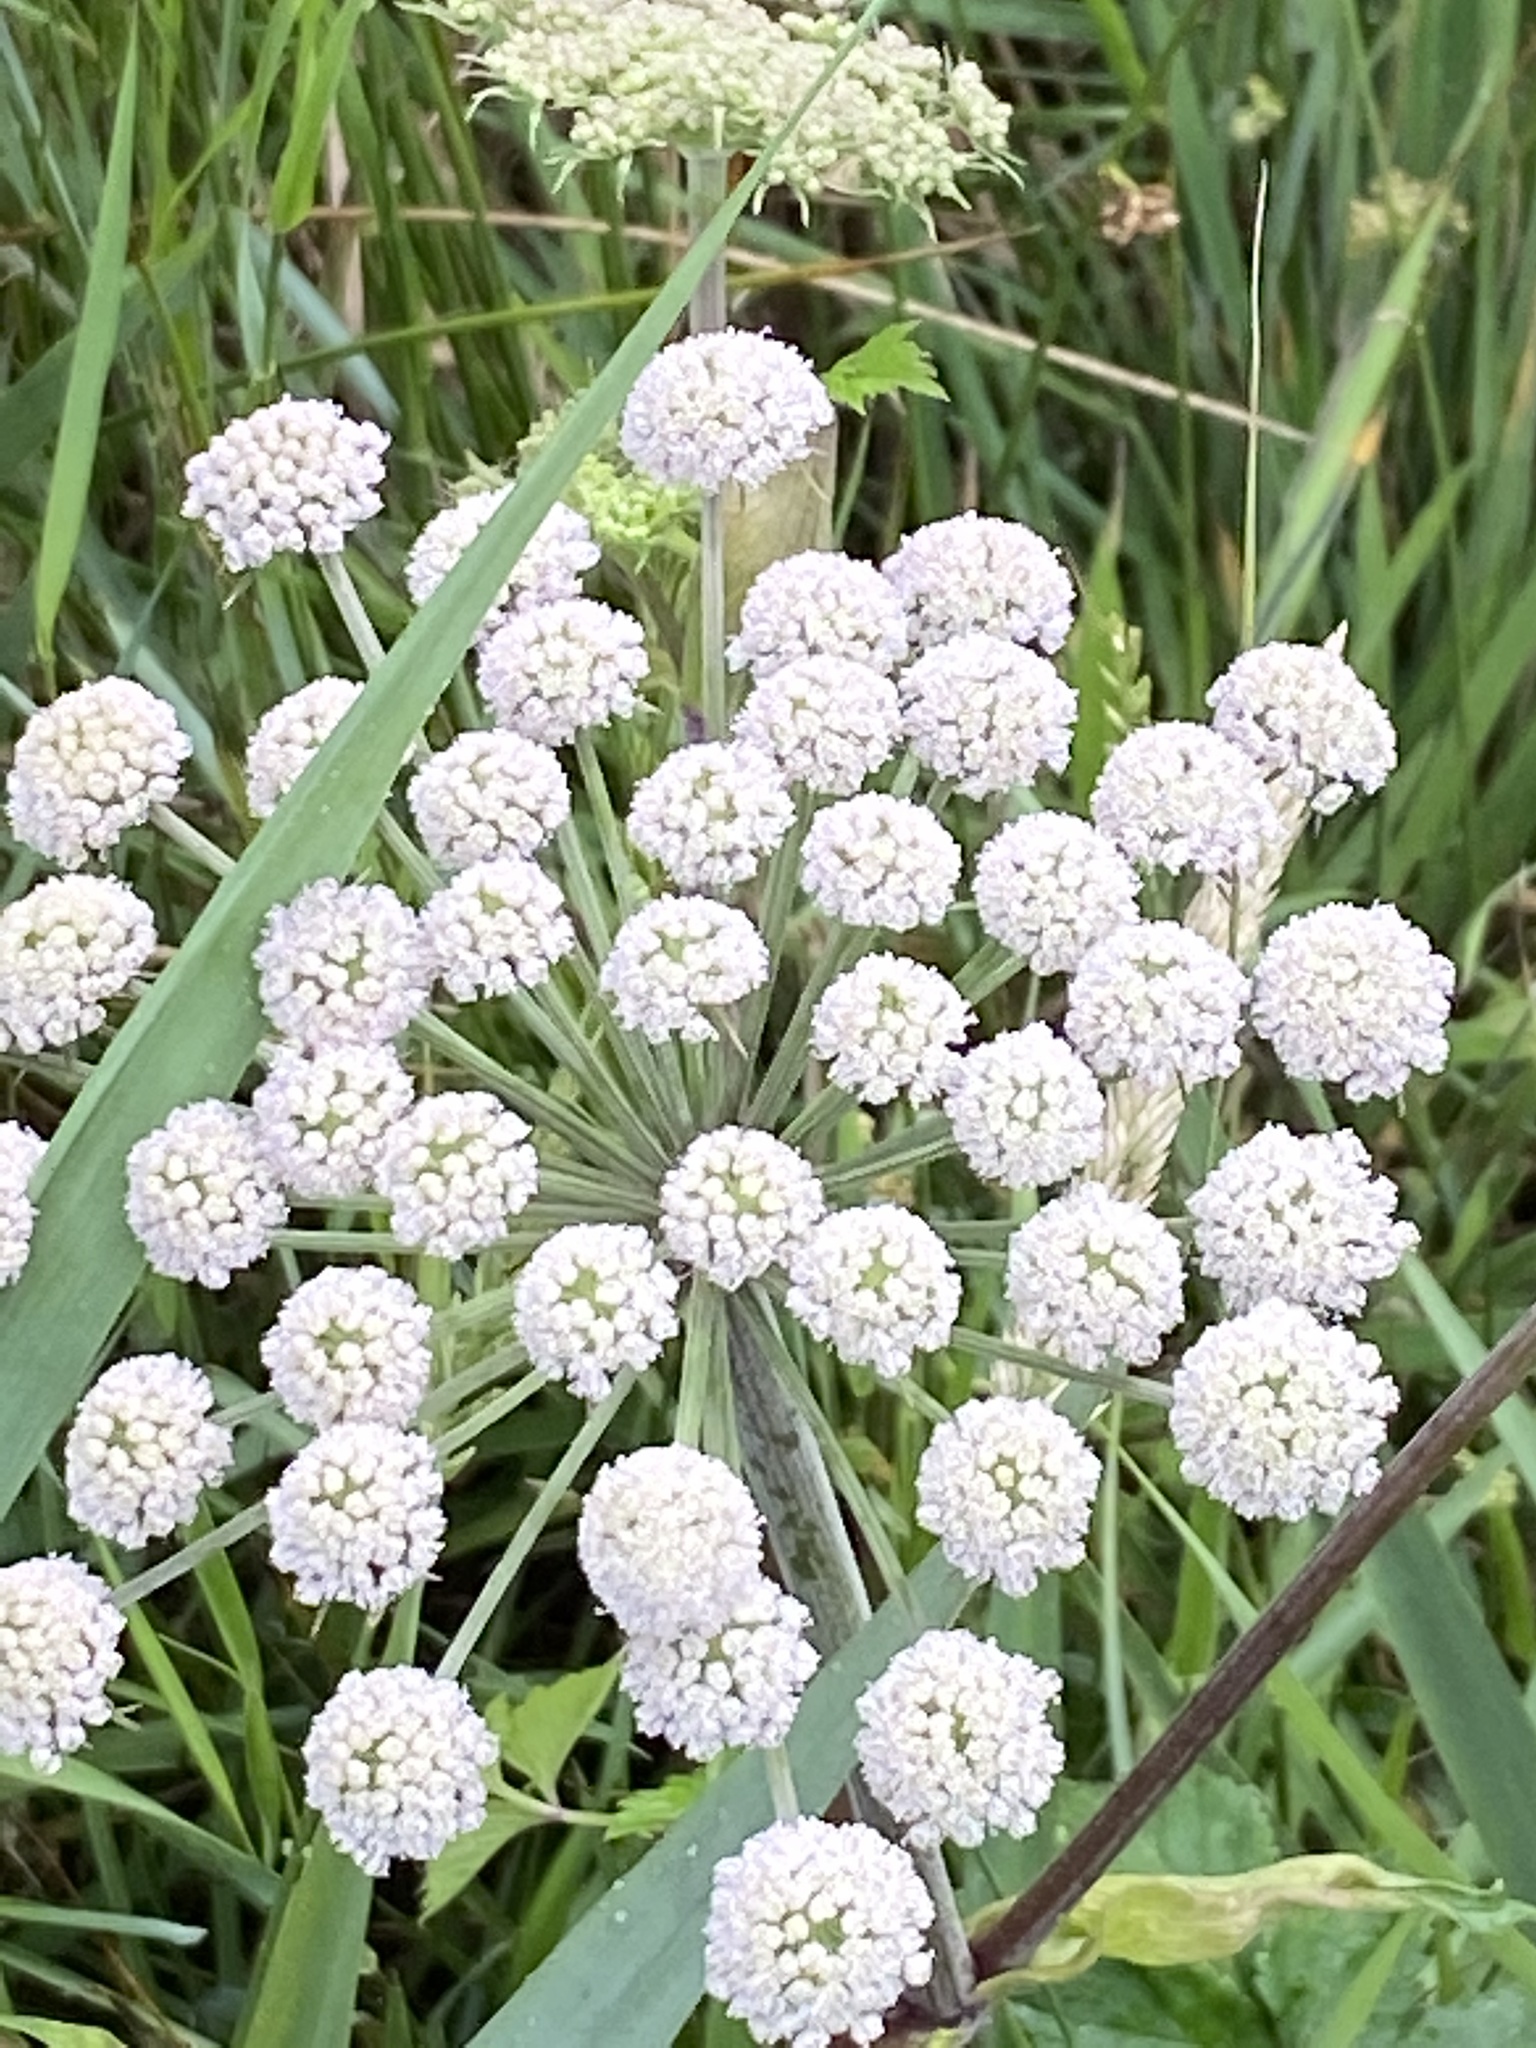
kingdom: Plantae
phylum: Tracheophyta
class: Magnoliopsida
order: Apiales
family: Apiaceae
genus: Angelica
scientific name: Angelica sylvestris
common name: Wild angelica
